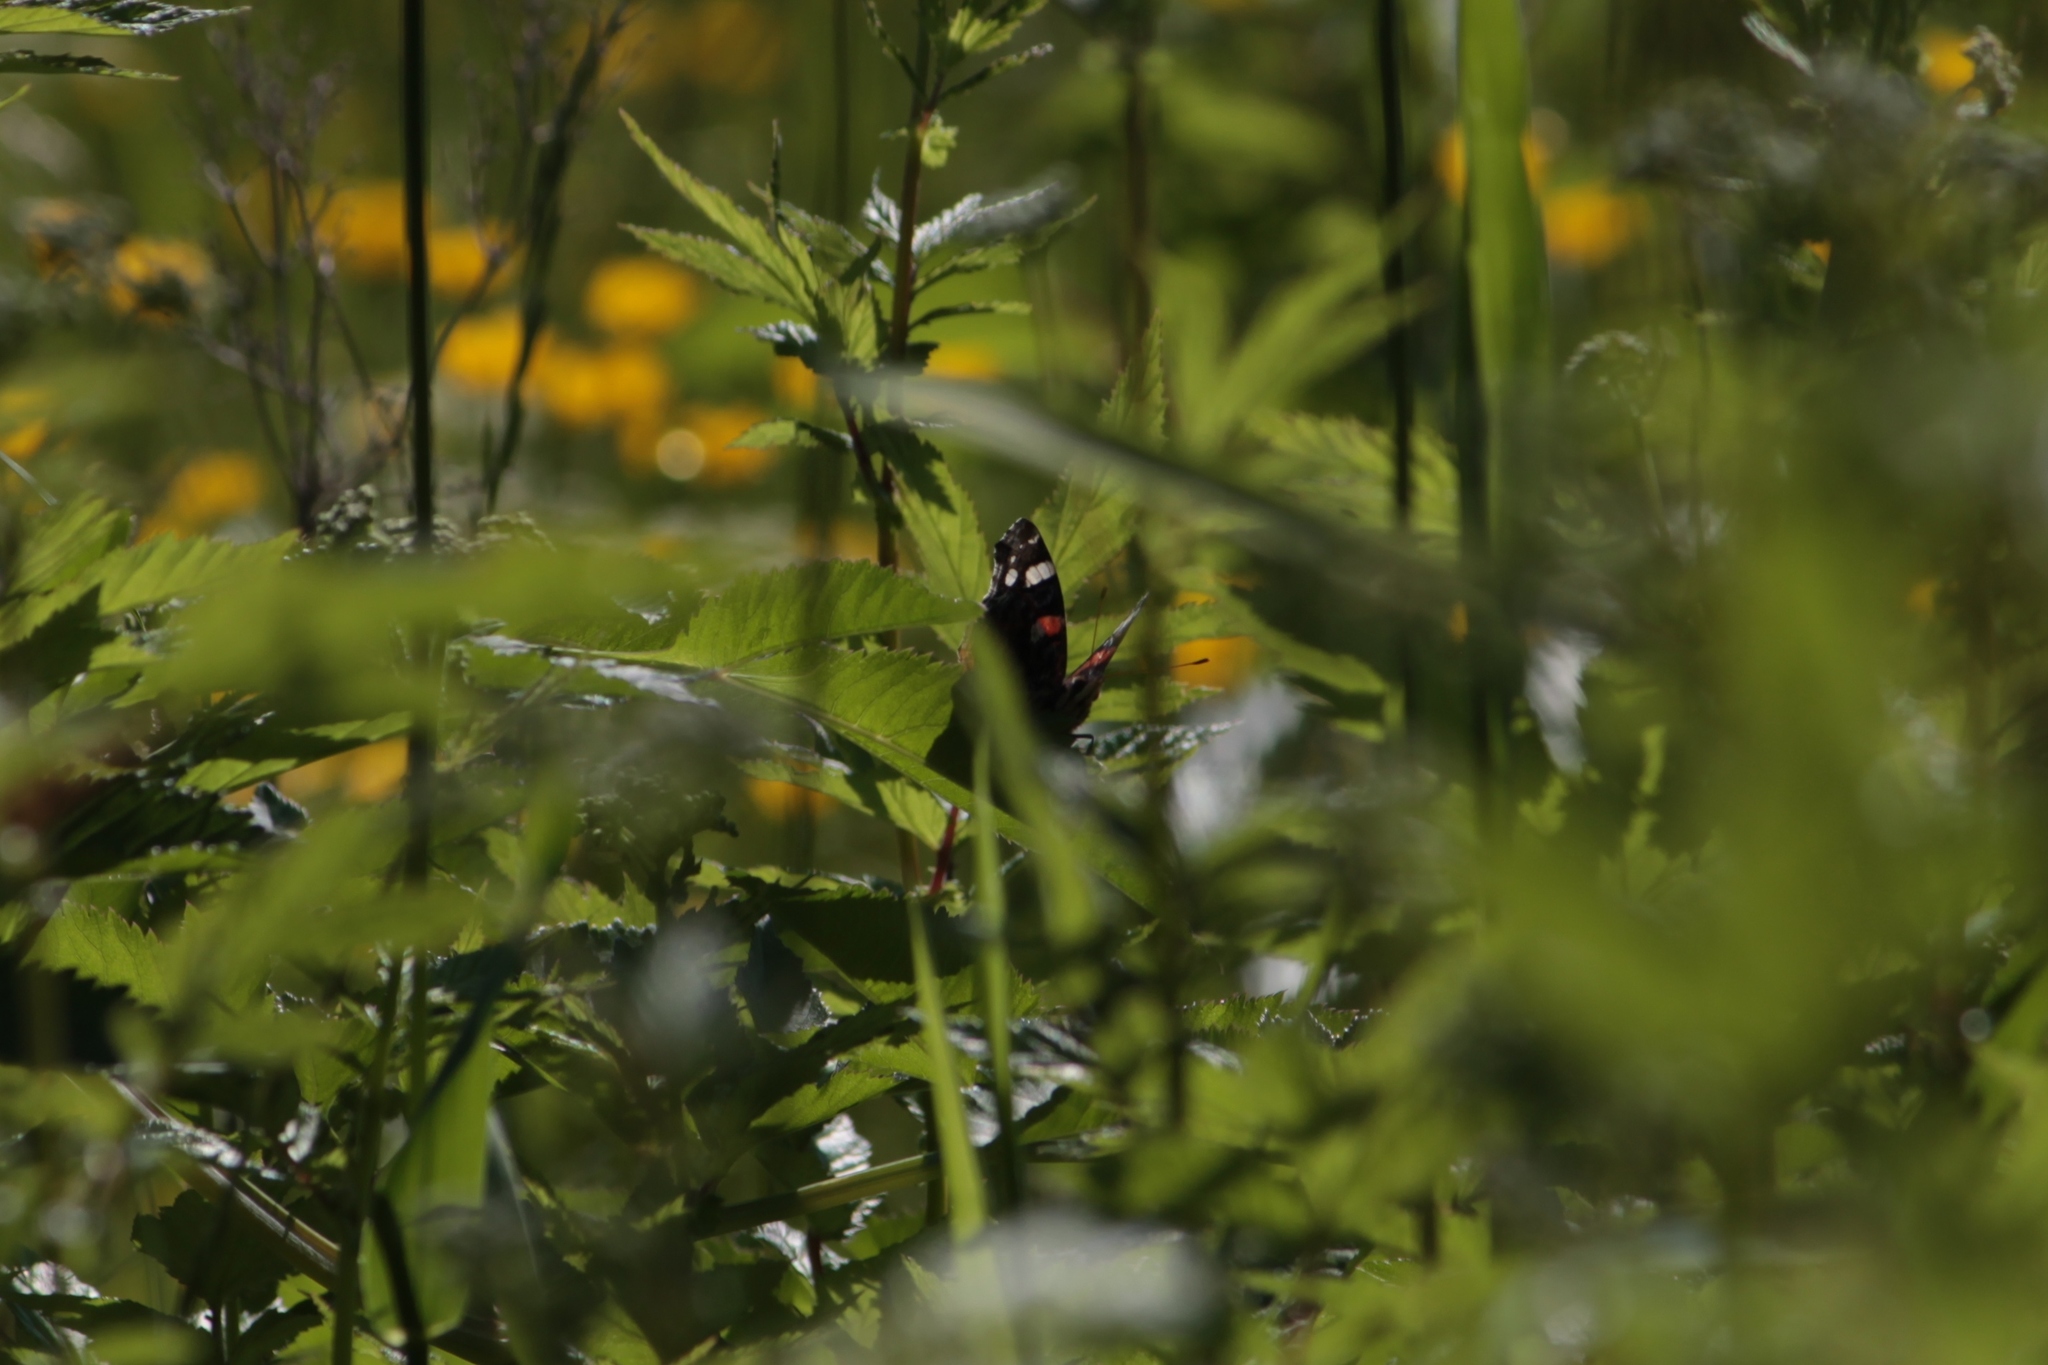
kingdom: Animalia
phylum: Arthropoda
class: Insecta
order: Lepidoptera
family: Nymphalidae
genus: Vanessa
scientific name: Vanessa atalanta
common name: Red admiral
